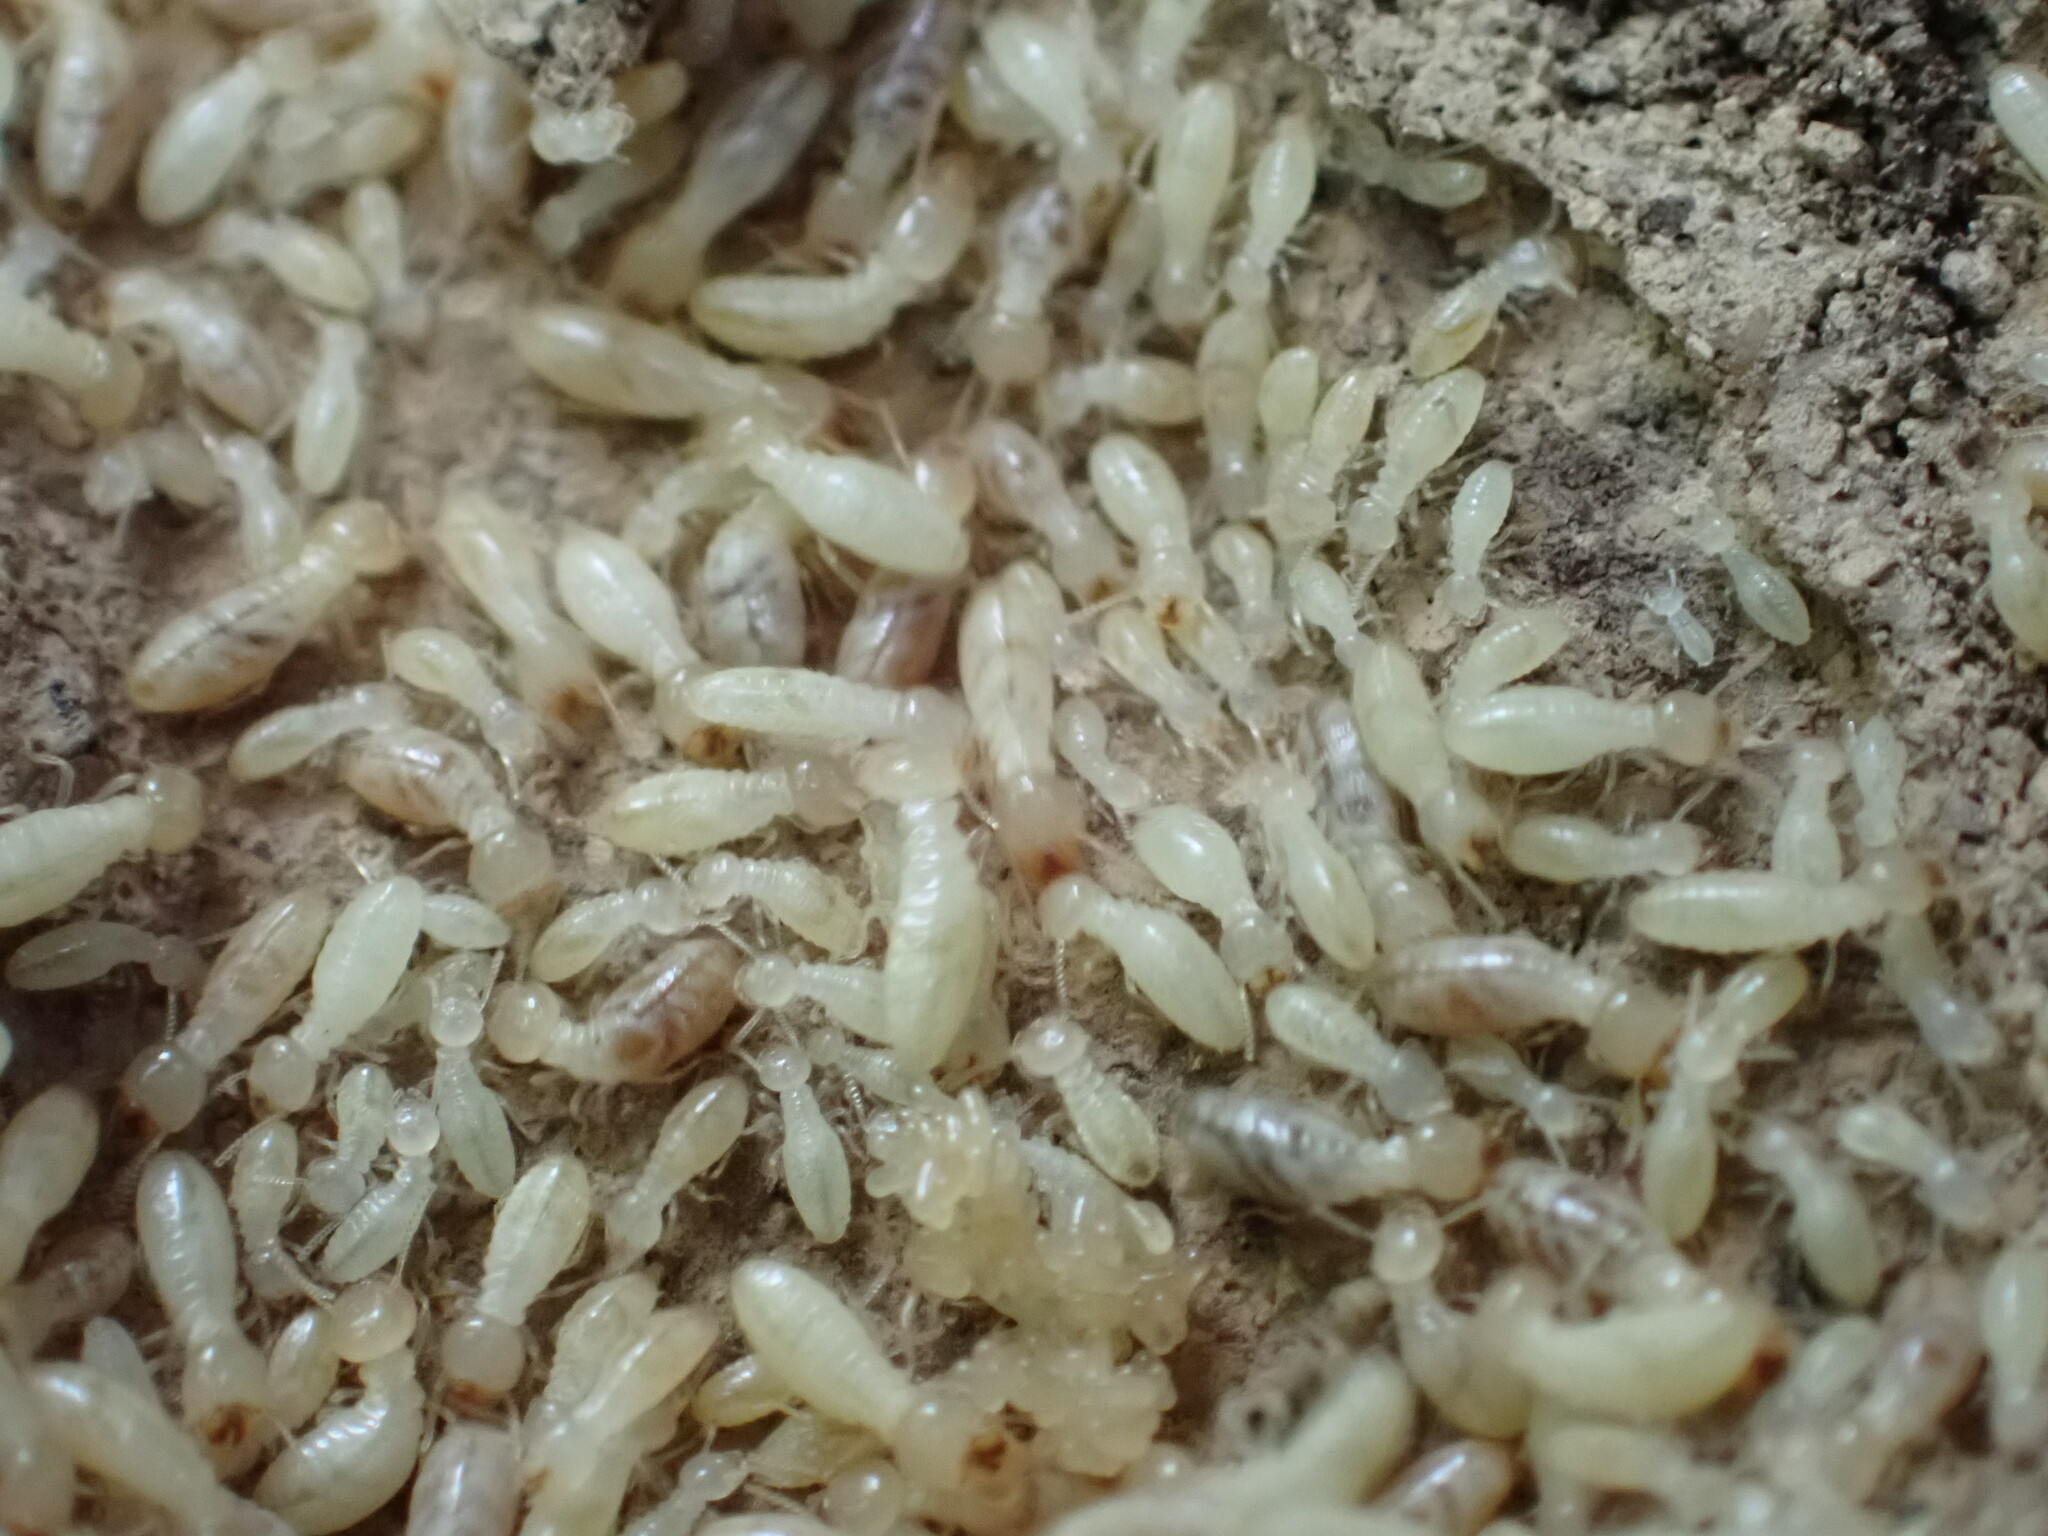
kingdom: Animalia
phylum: Arthropoda
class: Insecta
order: Blattodea
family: Rhinotermitidae
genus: Reticulitermes
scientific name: Reticulitermes flavipes
